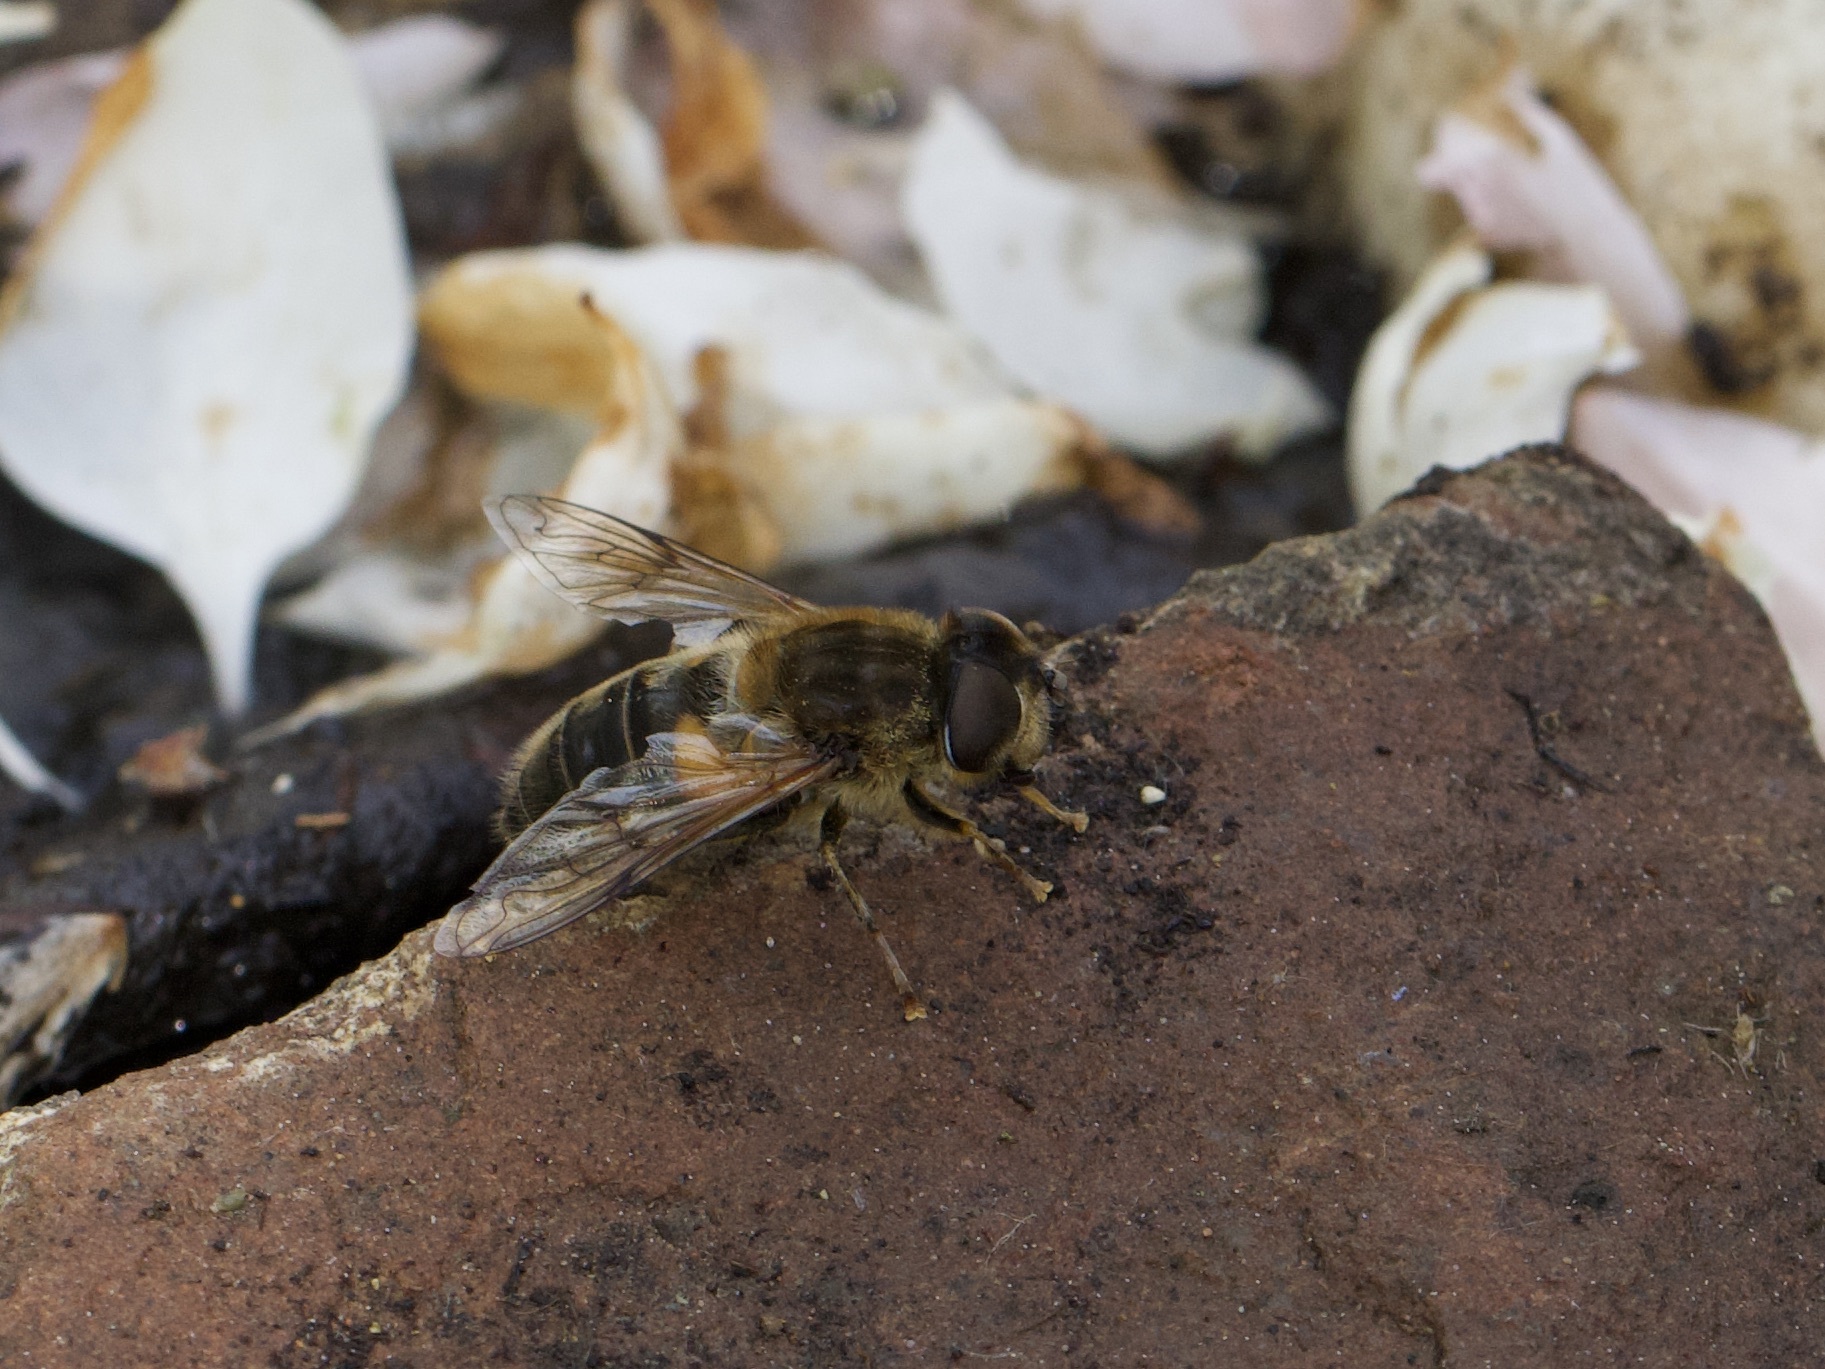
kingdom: Animalia
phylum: Arthropoda
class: Insecta
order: Diptera
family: Syrphidae
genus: Eristalis
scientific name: Eristalis pertinax
